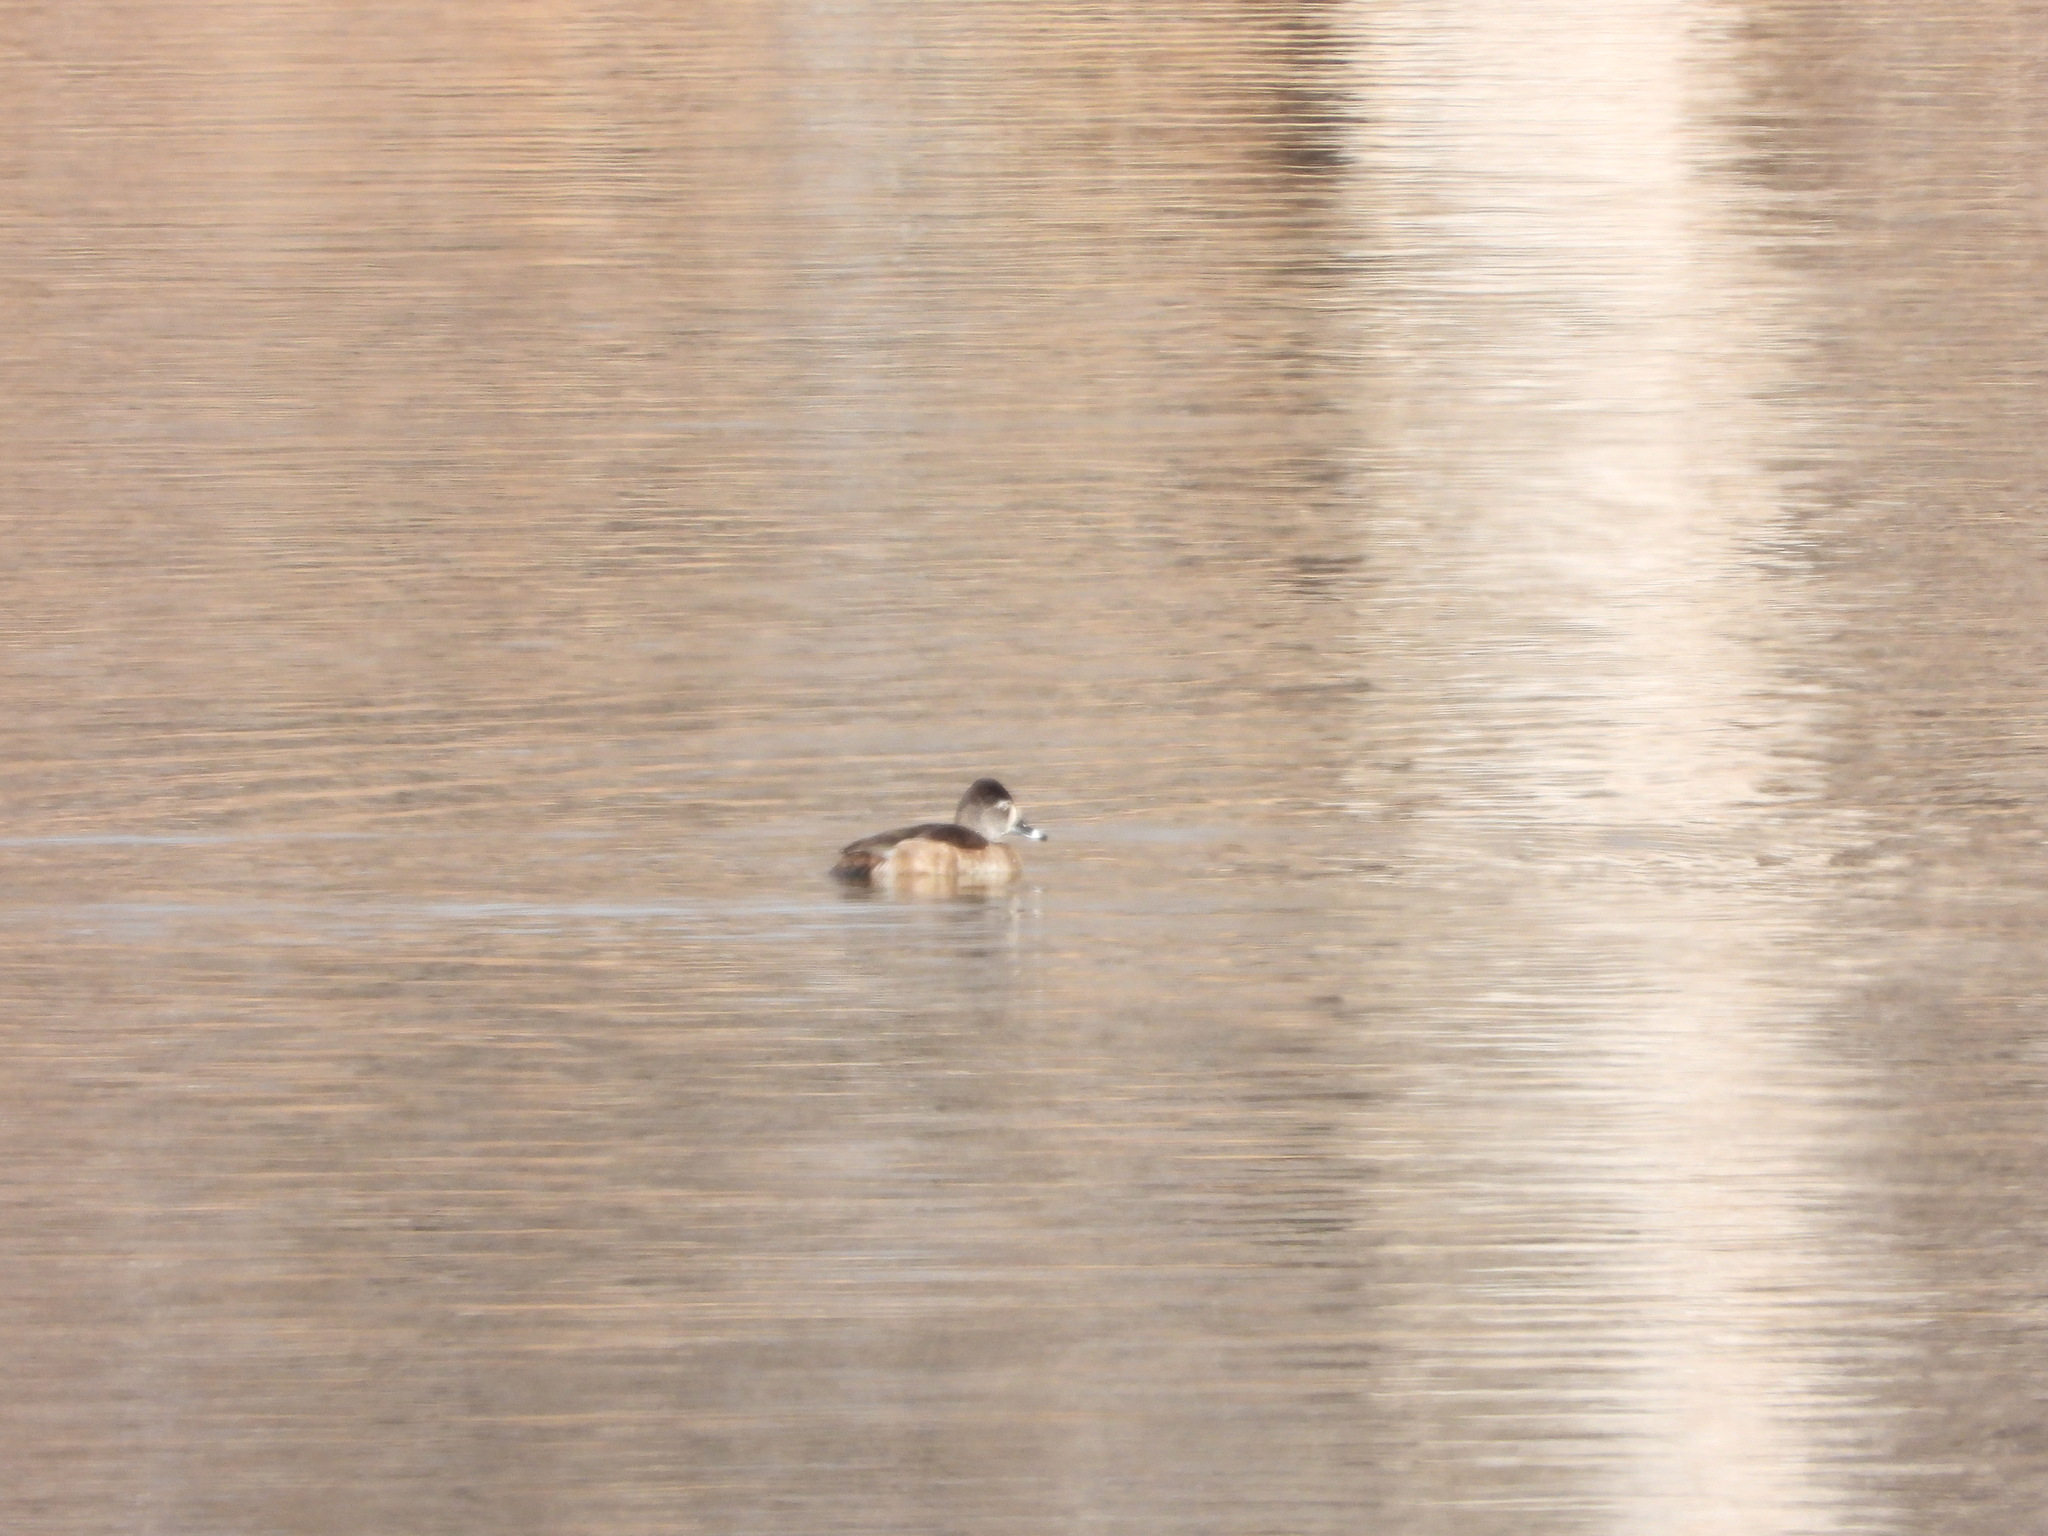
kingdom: Animalia
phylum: Chordata
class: Aves
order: Anseriformes
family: Anatidae
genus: Aythya
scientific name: Aythya collaris
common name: Ring-necked duck
